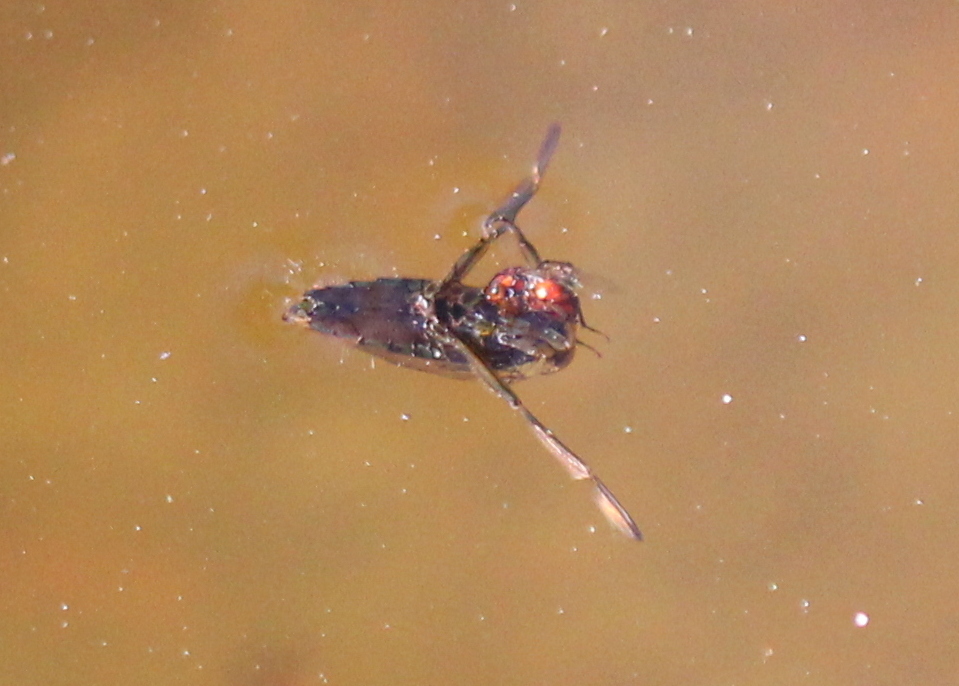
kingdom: Animalia
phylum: Arthropoda
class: Insecta
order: Hemiptera
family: Notonectidae
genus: Notonecta
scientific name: Notonecta
